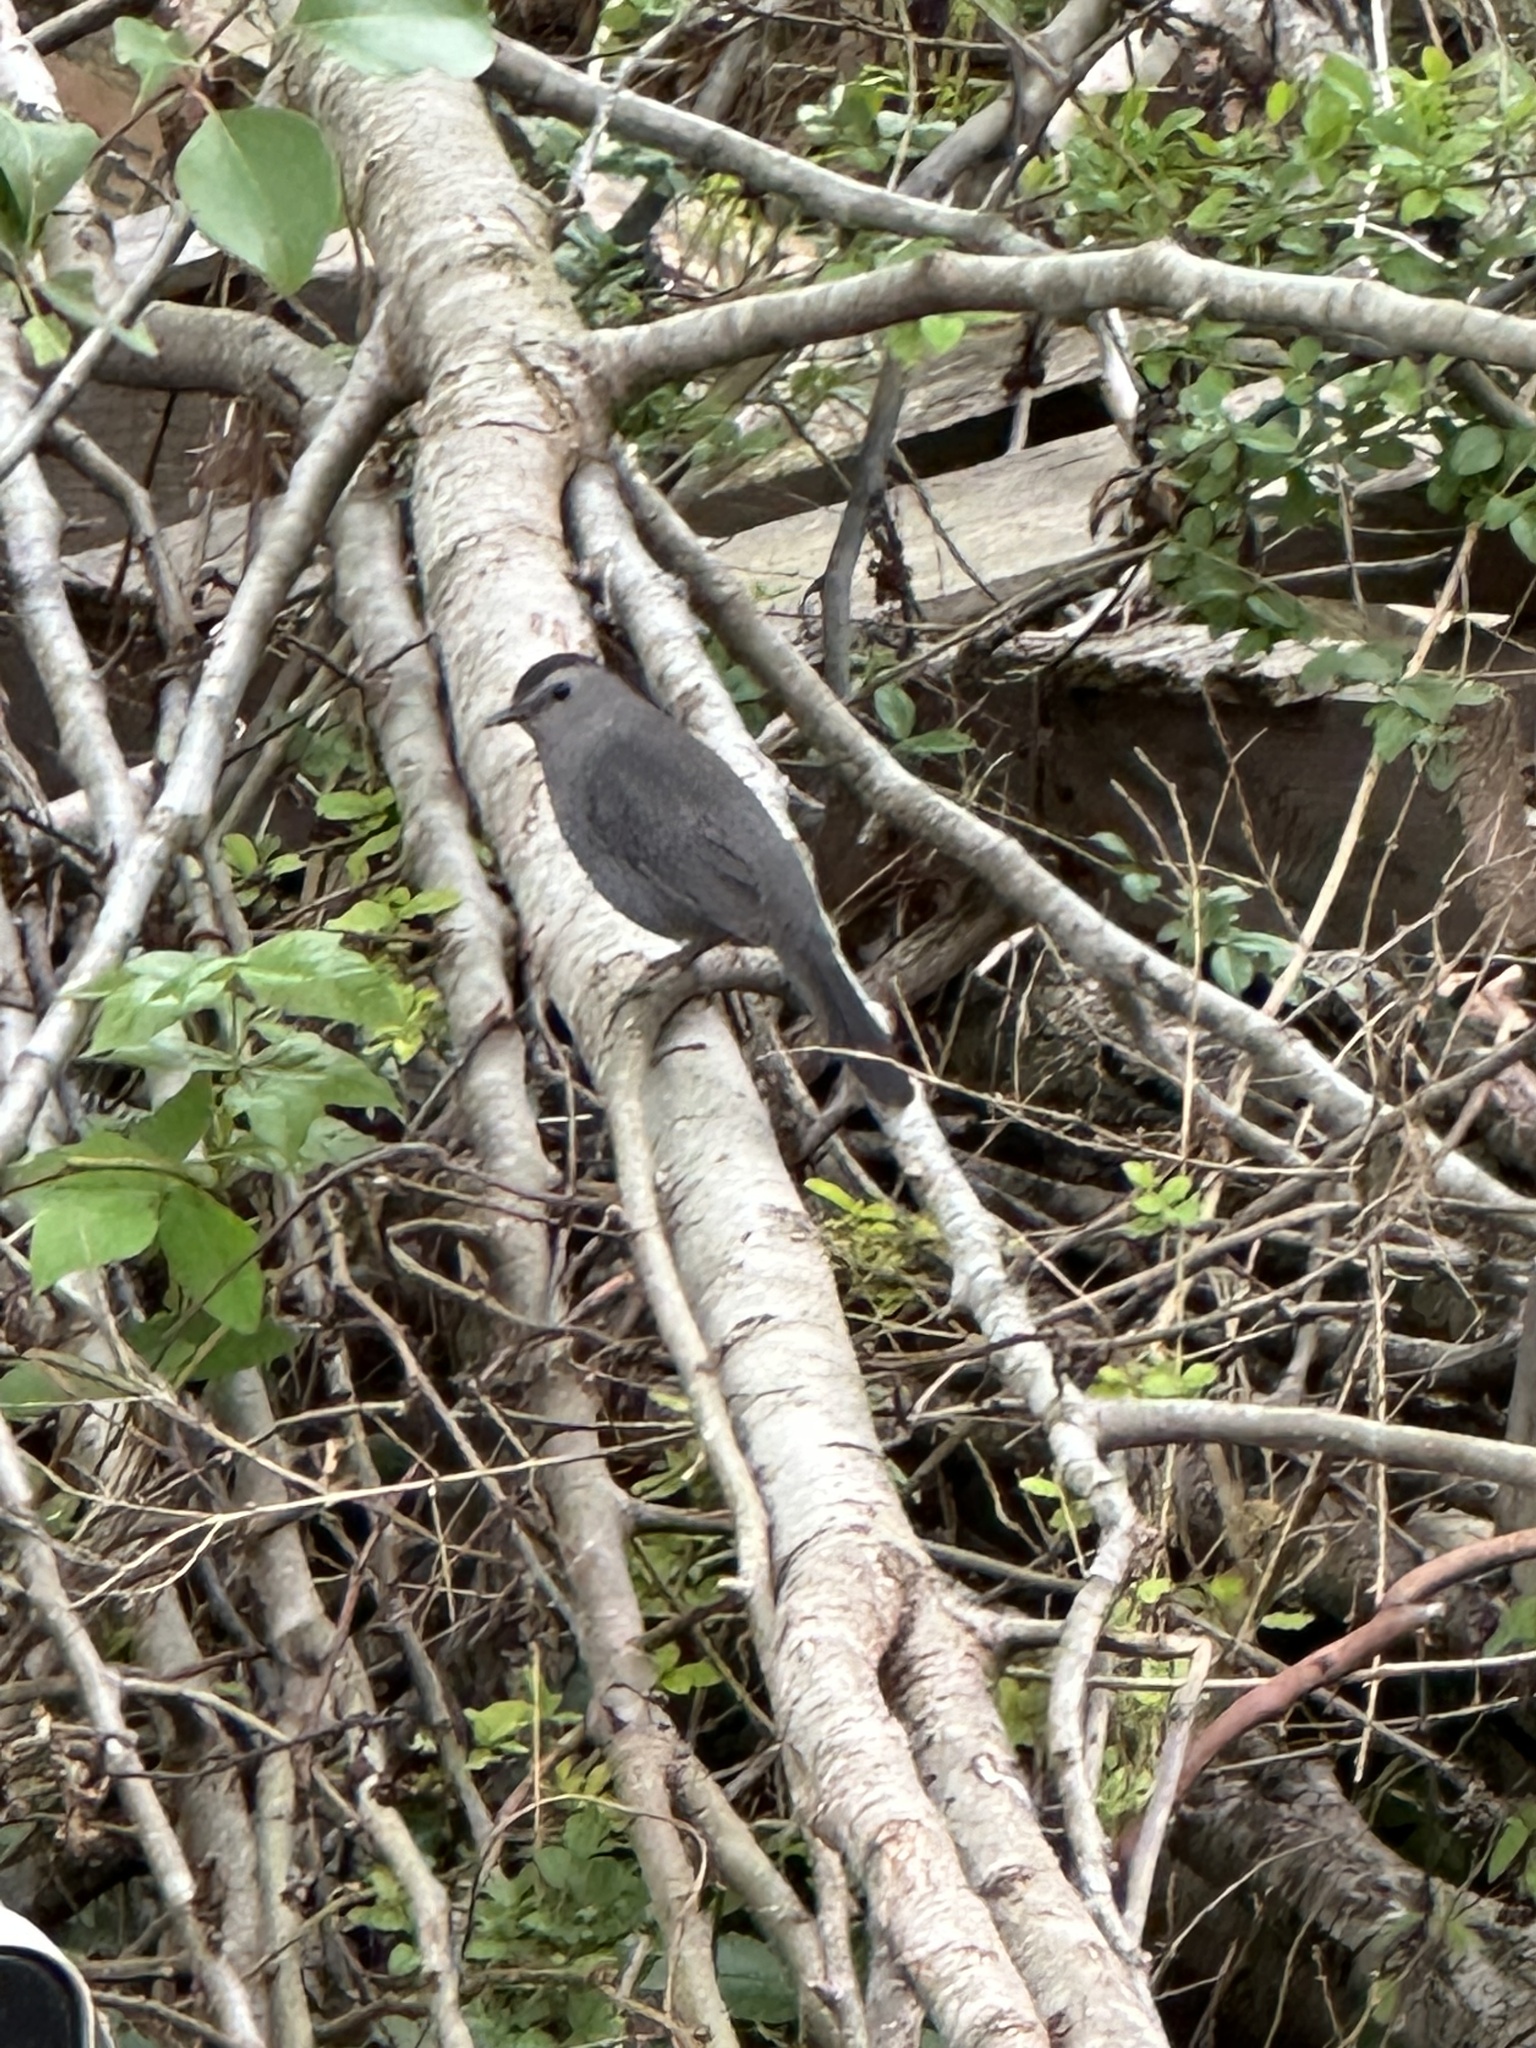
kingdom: Animalia
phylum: Chordata
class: Aves
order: Passeriformes
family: Mimidae
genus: Dumetella
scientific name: Dumetella carolinensis
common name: Gray catbird
